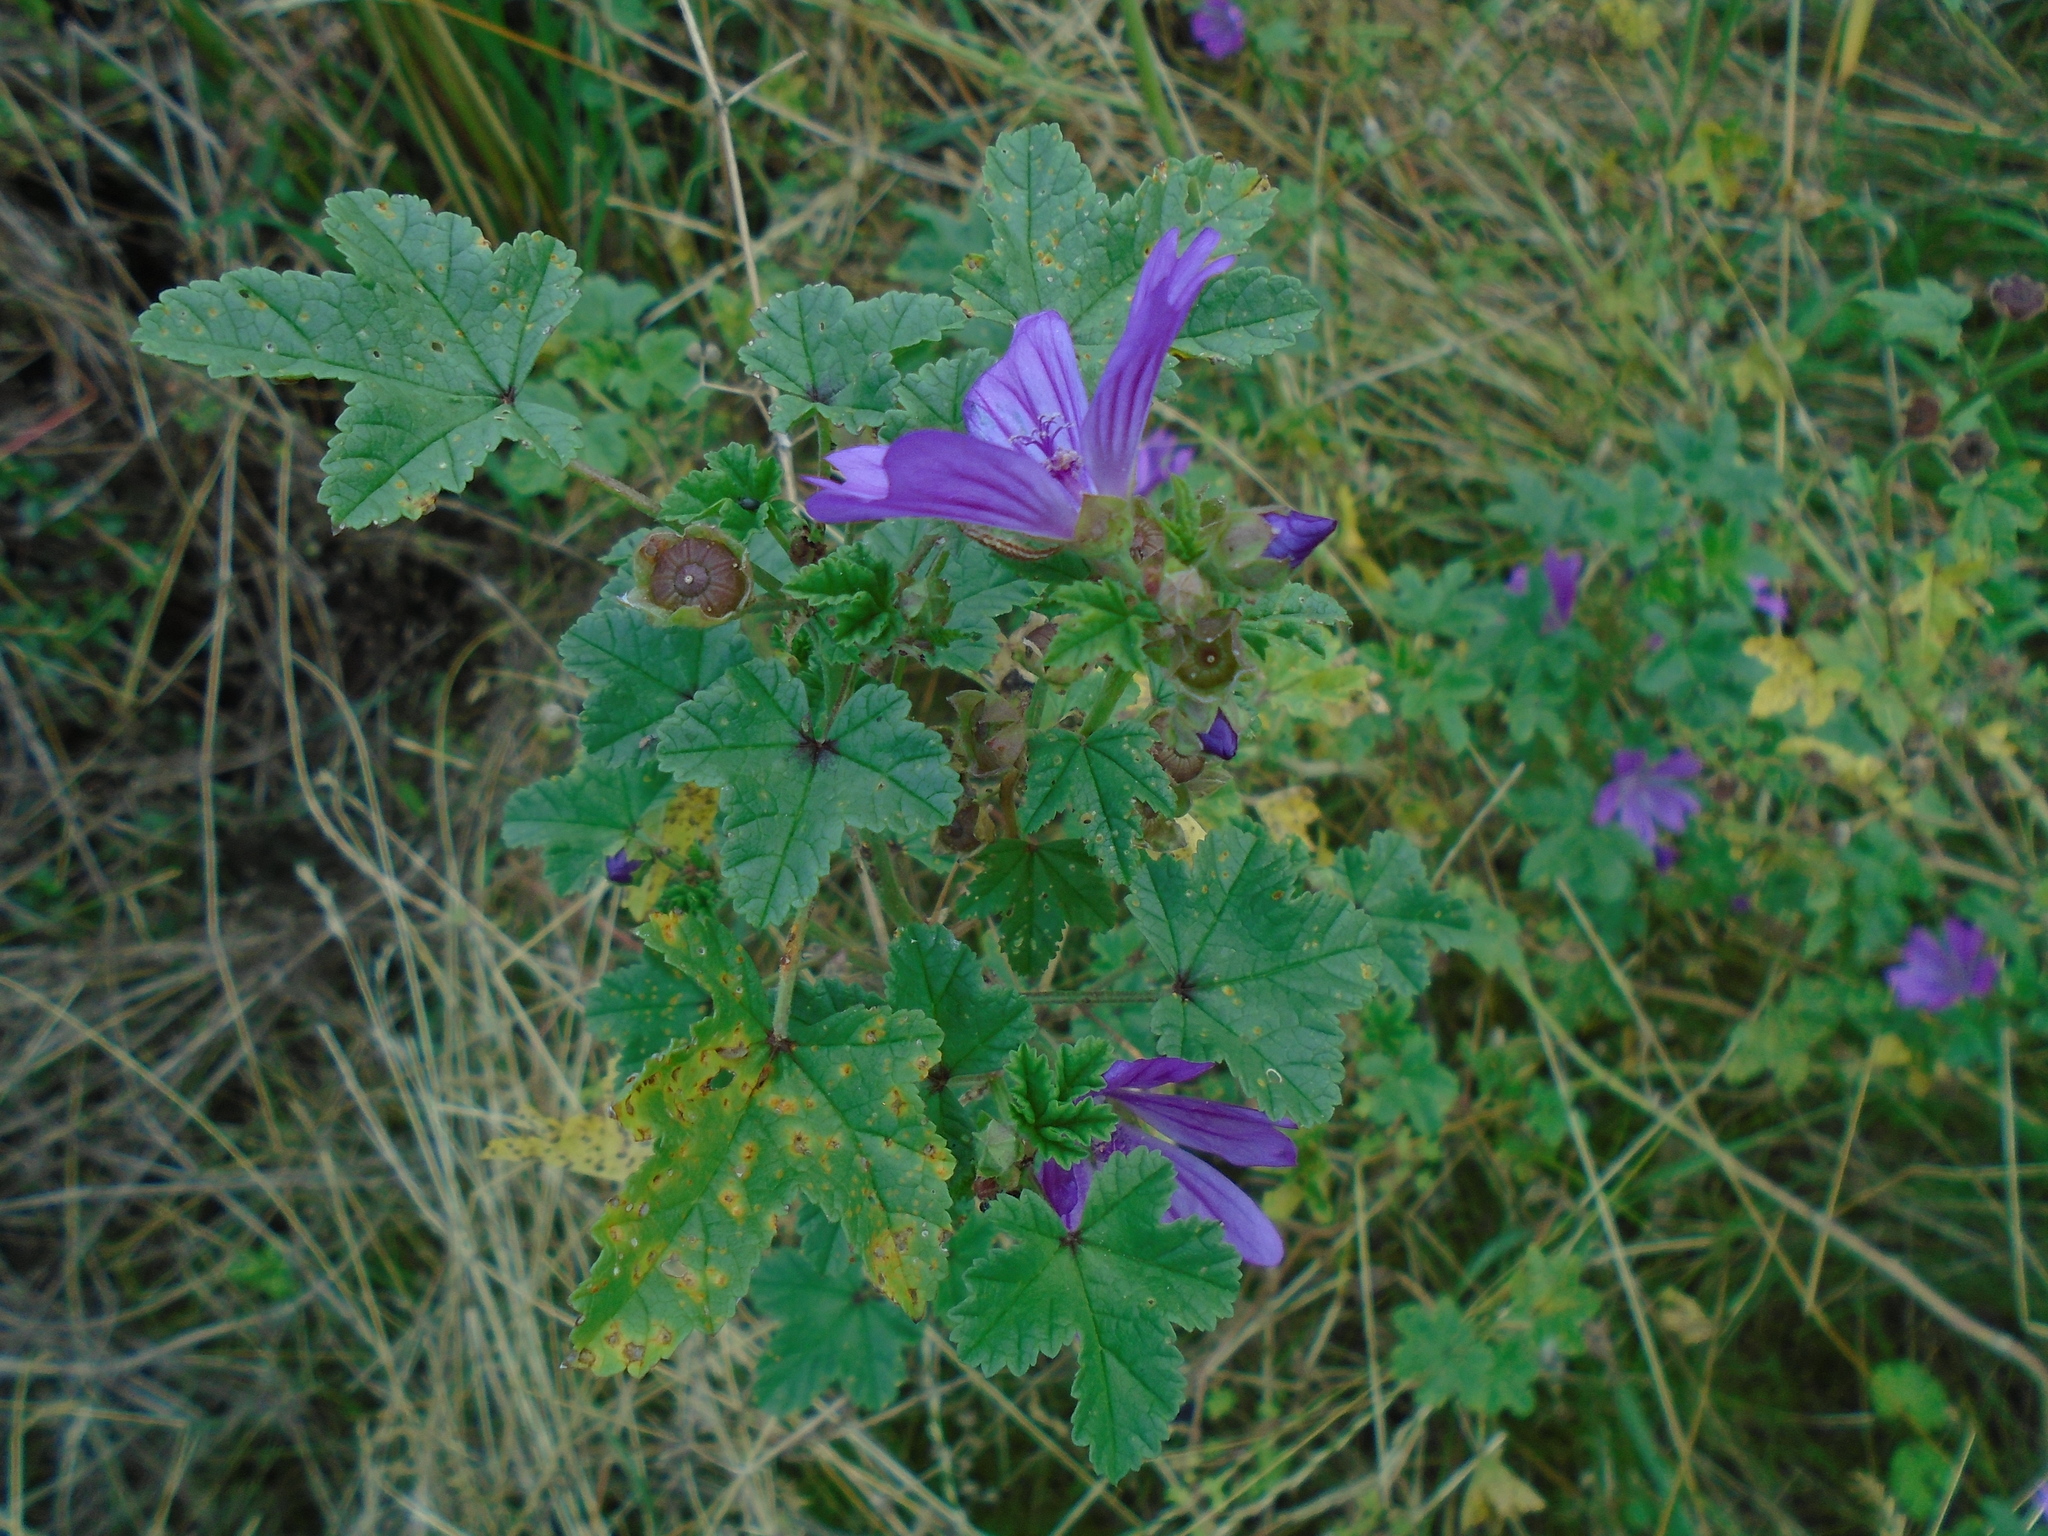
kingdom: Plantae
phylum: Tracheophyta
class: Magnoliopsida
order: Malvales
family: Malvaceae
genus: Malva
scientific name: Malva sylvestris
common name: Common mallow
